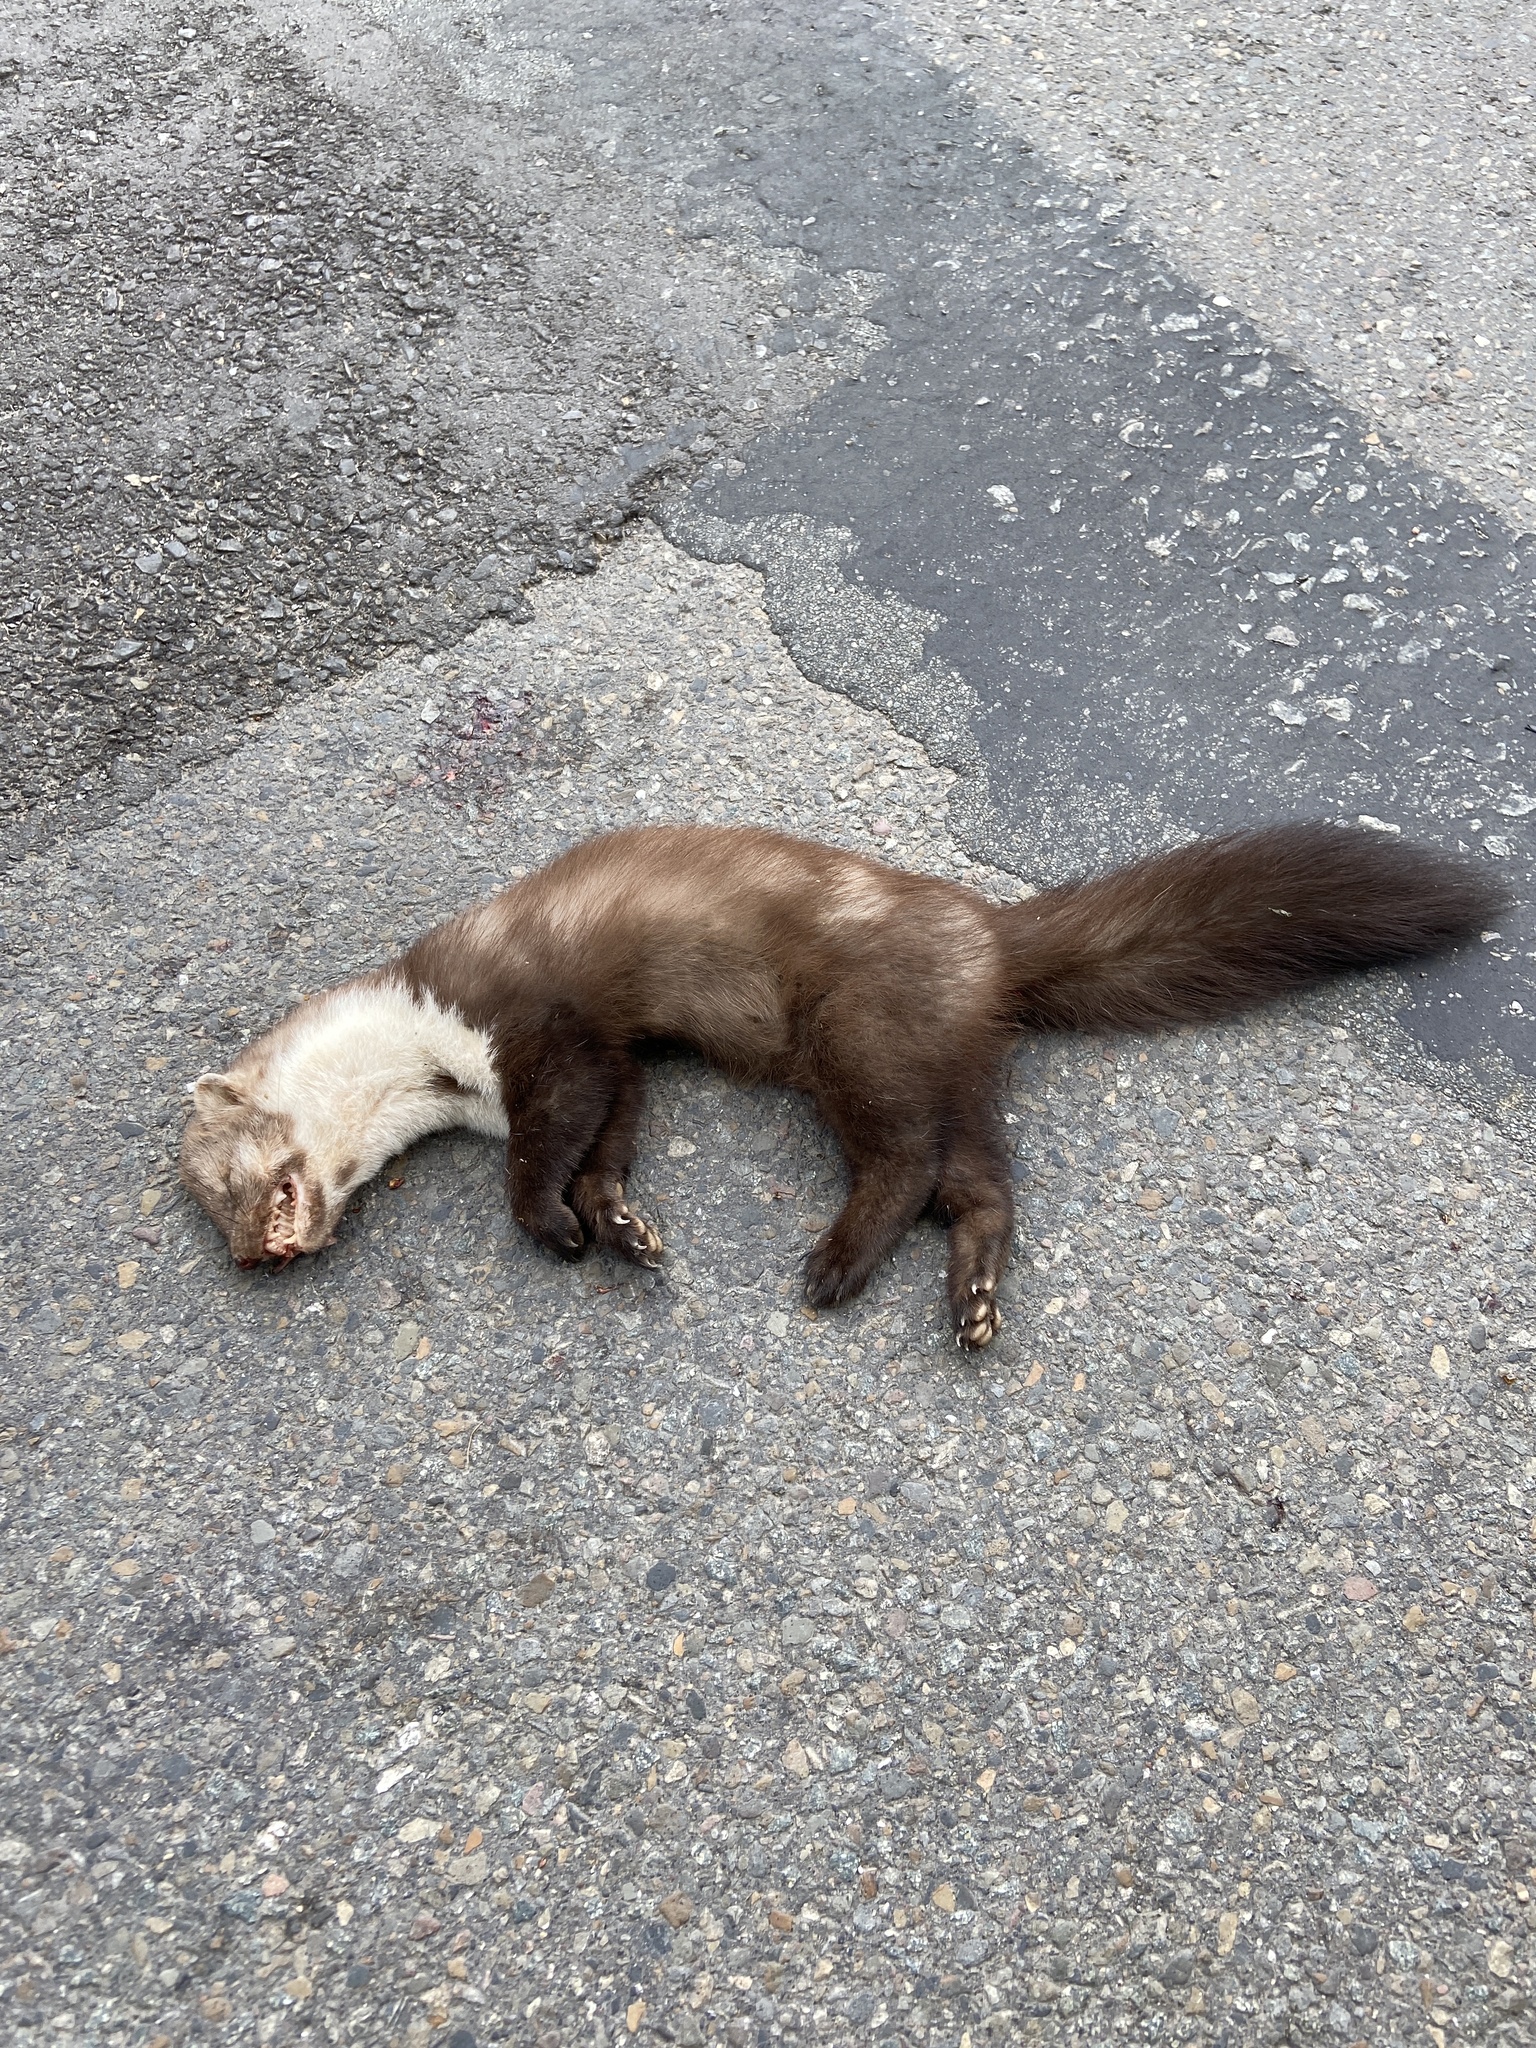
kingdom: Animalia
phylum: Chordata
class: Mammalia
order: Carnivora
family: Mustelidae
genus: Martes
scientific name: Martes foina
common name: Beech marten
